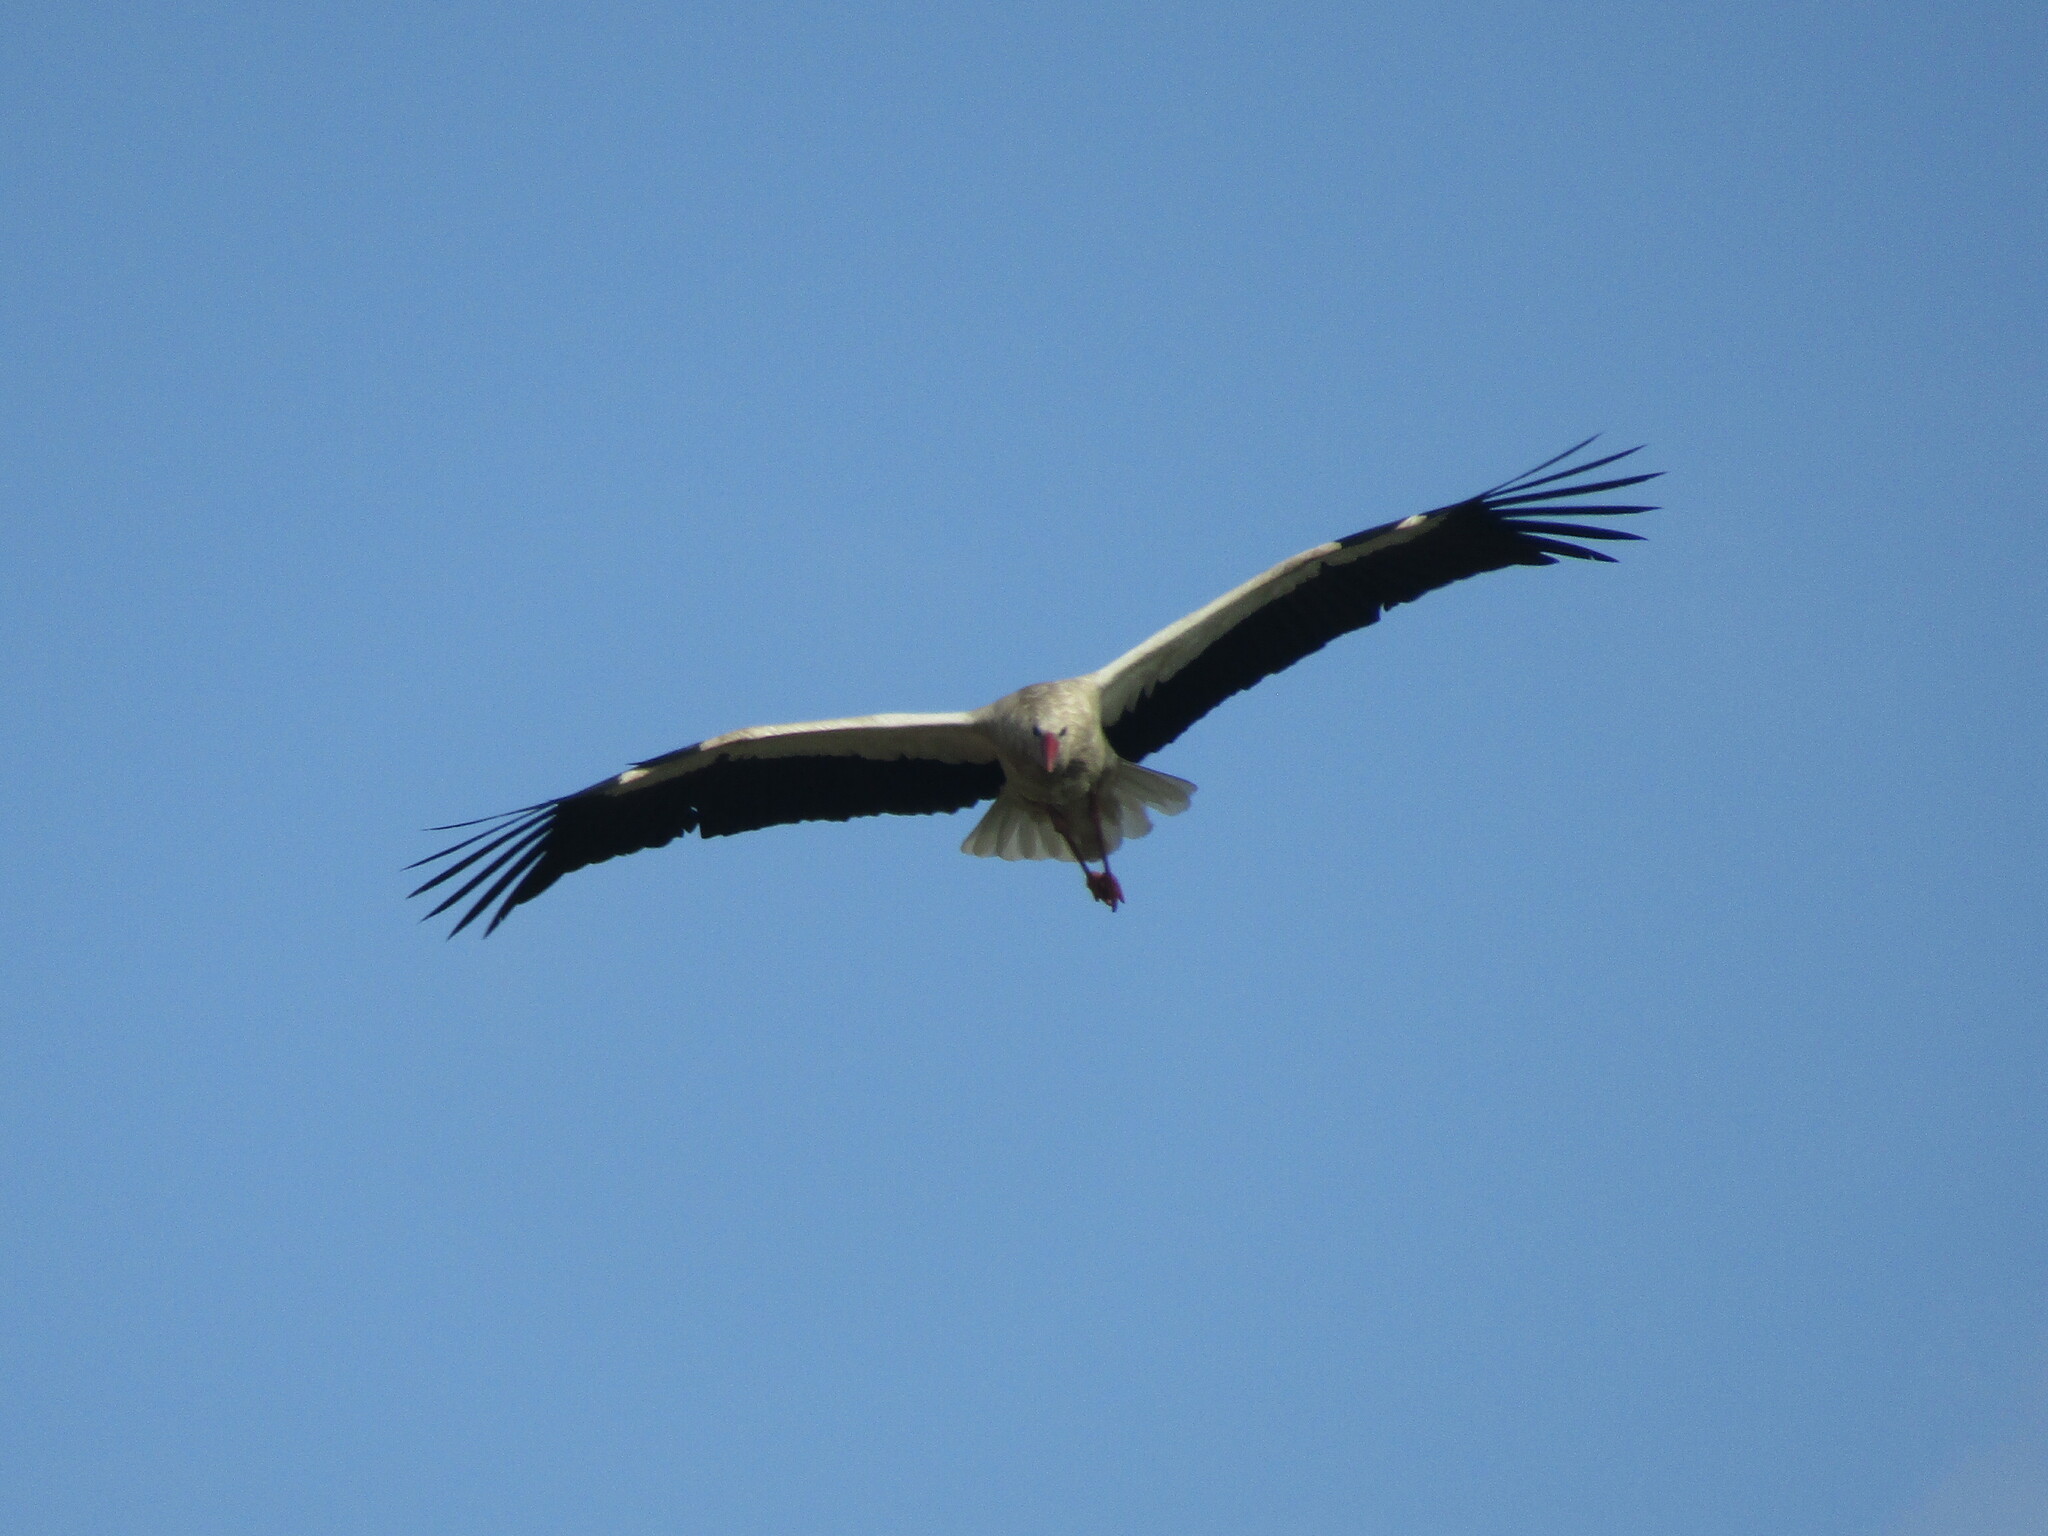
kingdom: Animalia
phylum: Chordata
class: Aves
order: Ciconiiformes
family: Ciconiidae
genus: Ciconia
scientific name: Ciconia ciconia
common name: White stork
